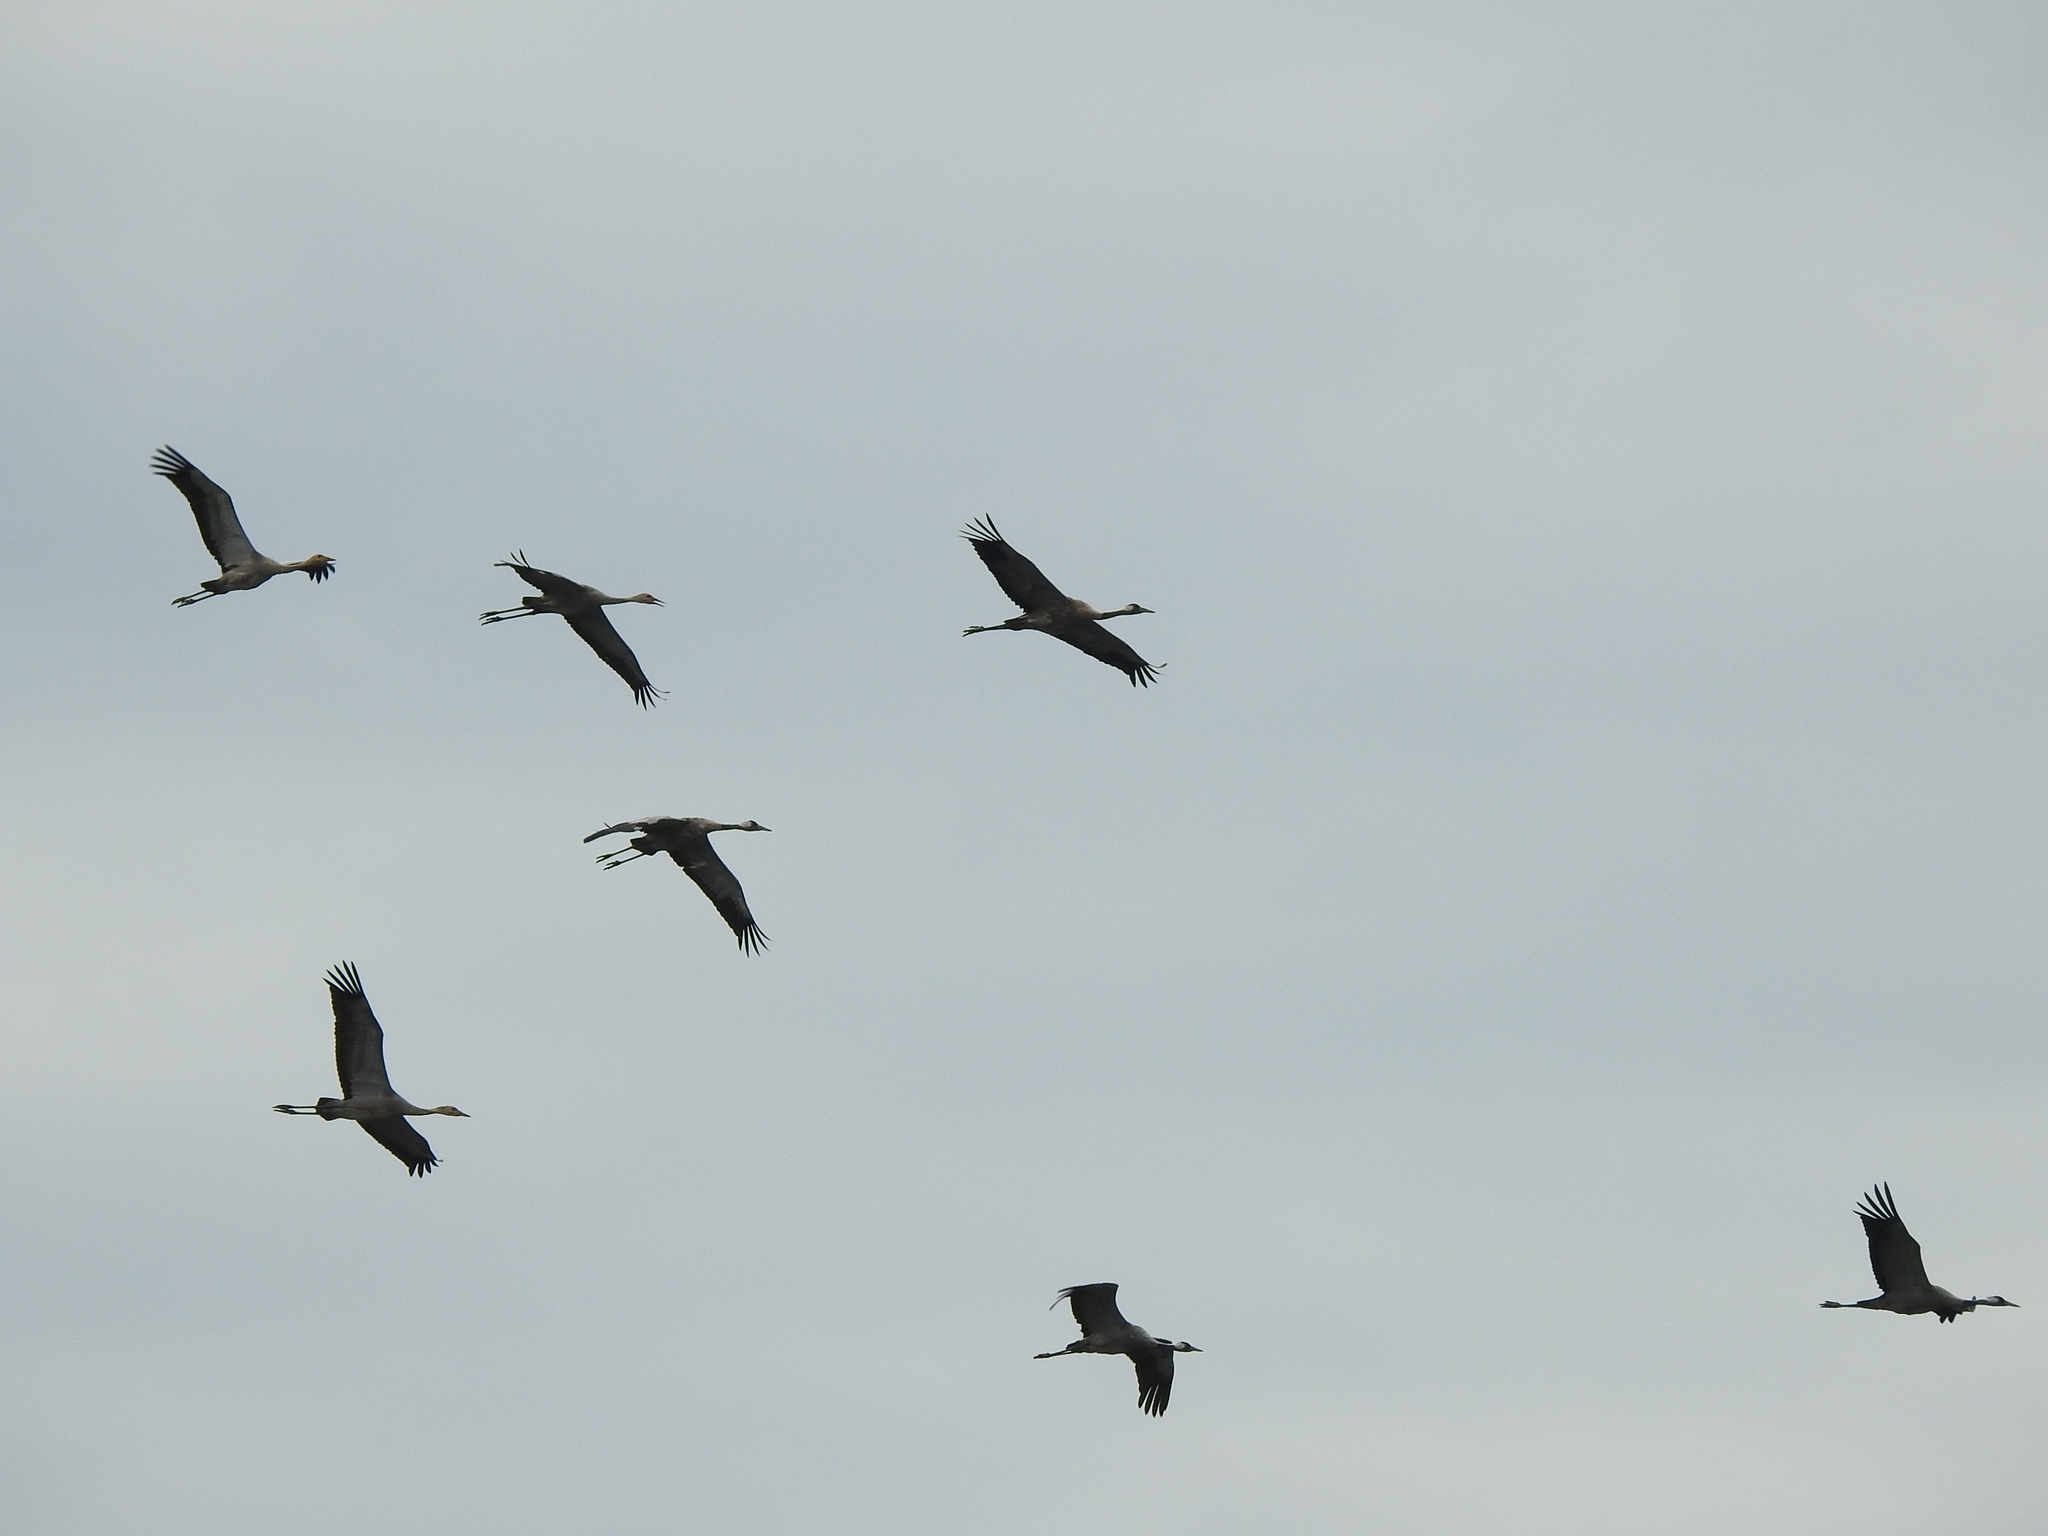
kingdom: Animalia
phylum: Chordata
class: Aves
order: Gruiformes
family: Gruidae
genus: Grus
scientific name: Grus grus
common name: Common crane
